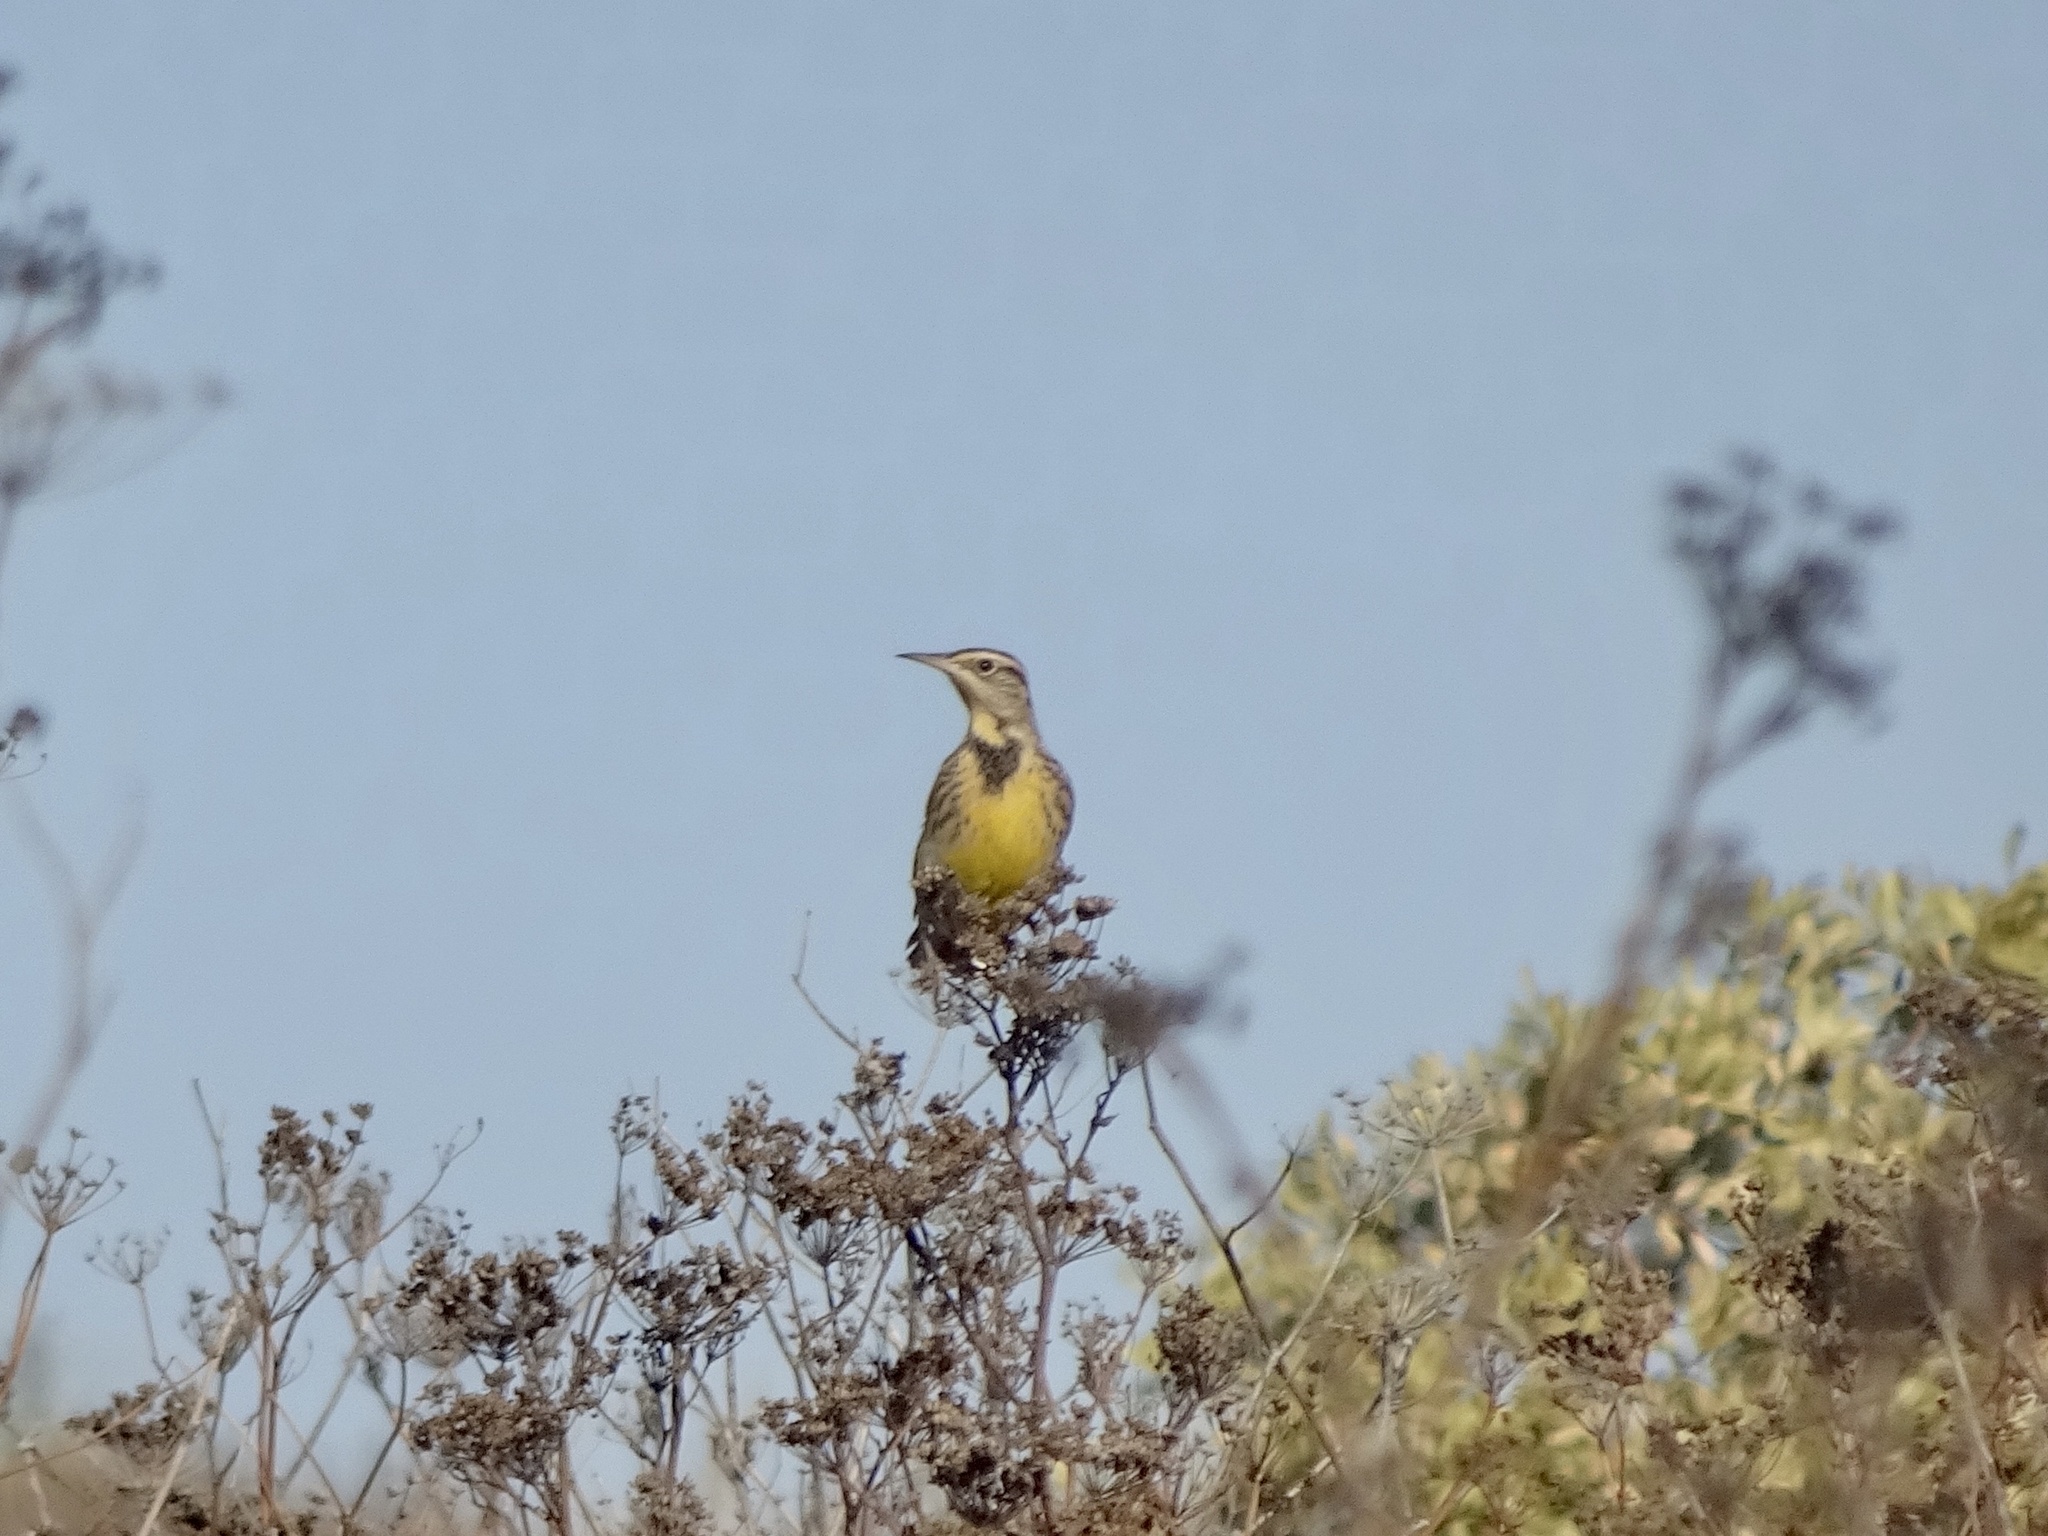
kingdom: Animalia
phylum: Chordata
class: Aves
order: Passeriformes
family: Icteridae
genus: Sturnella
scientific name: Sturnella neglecta
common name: Western meadowlark
